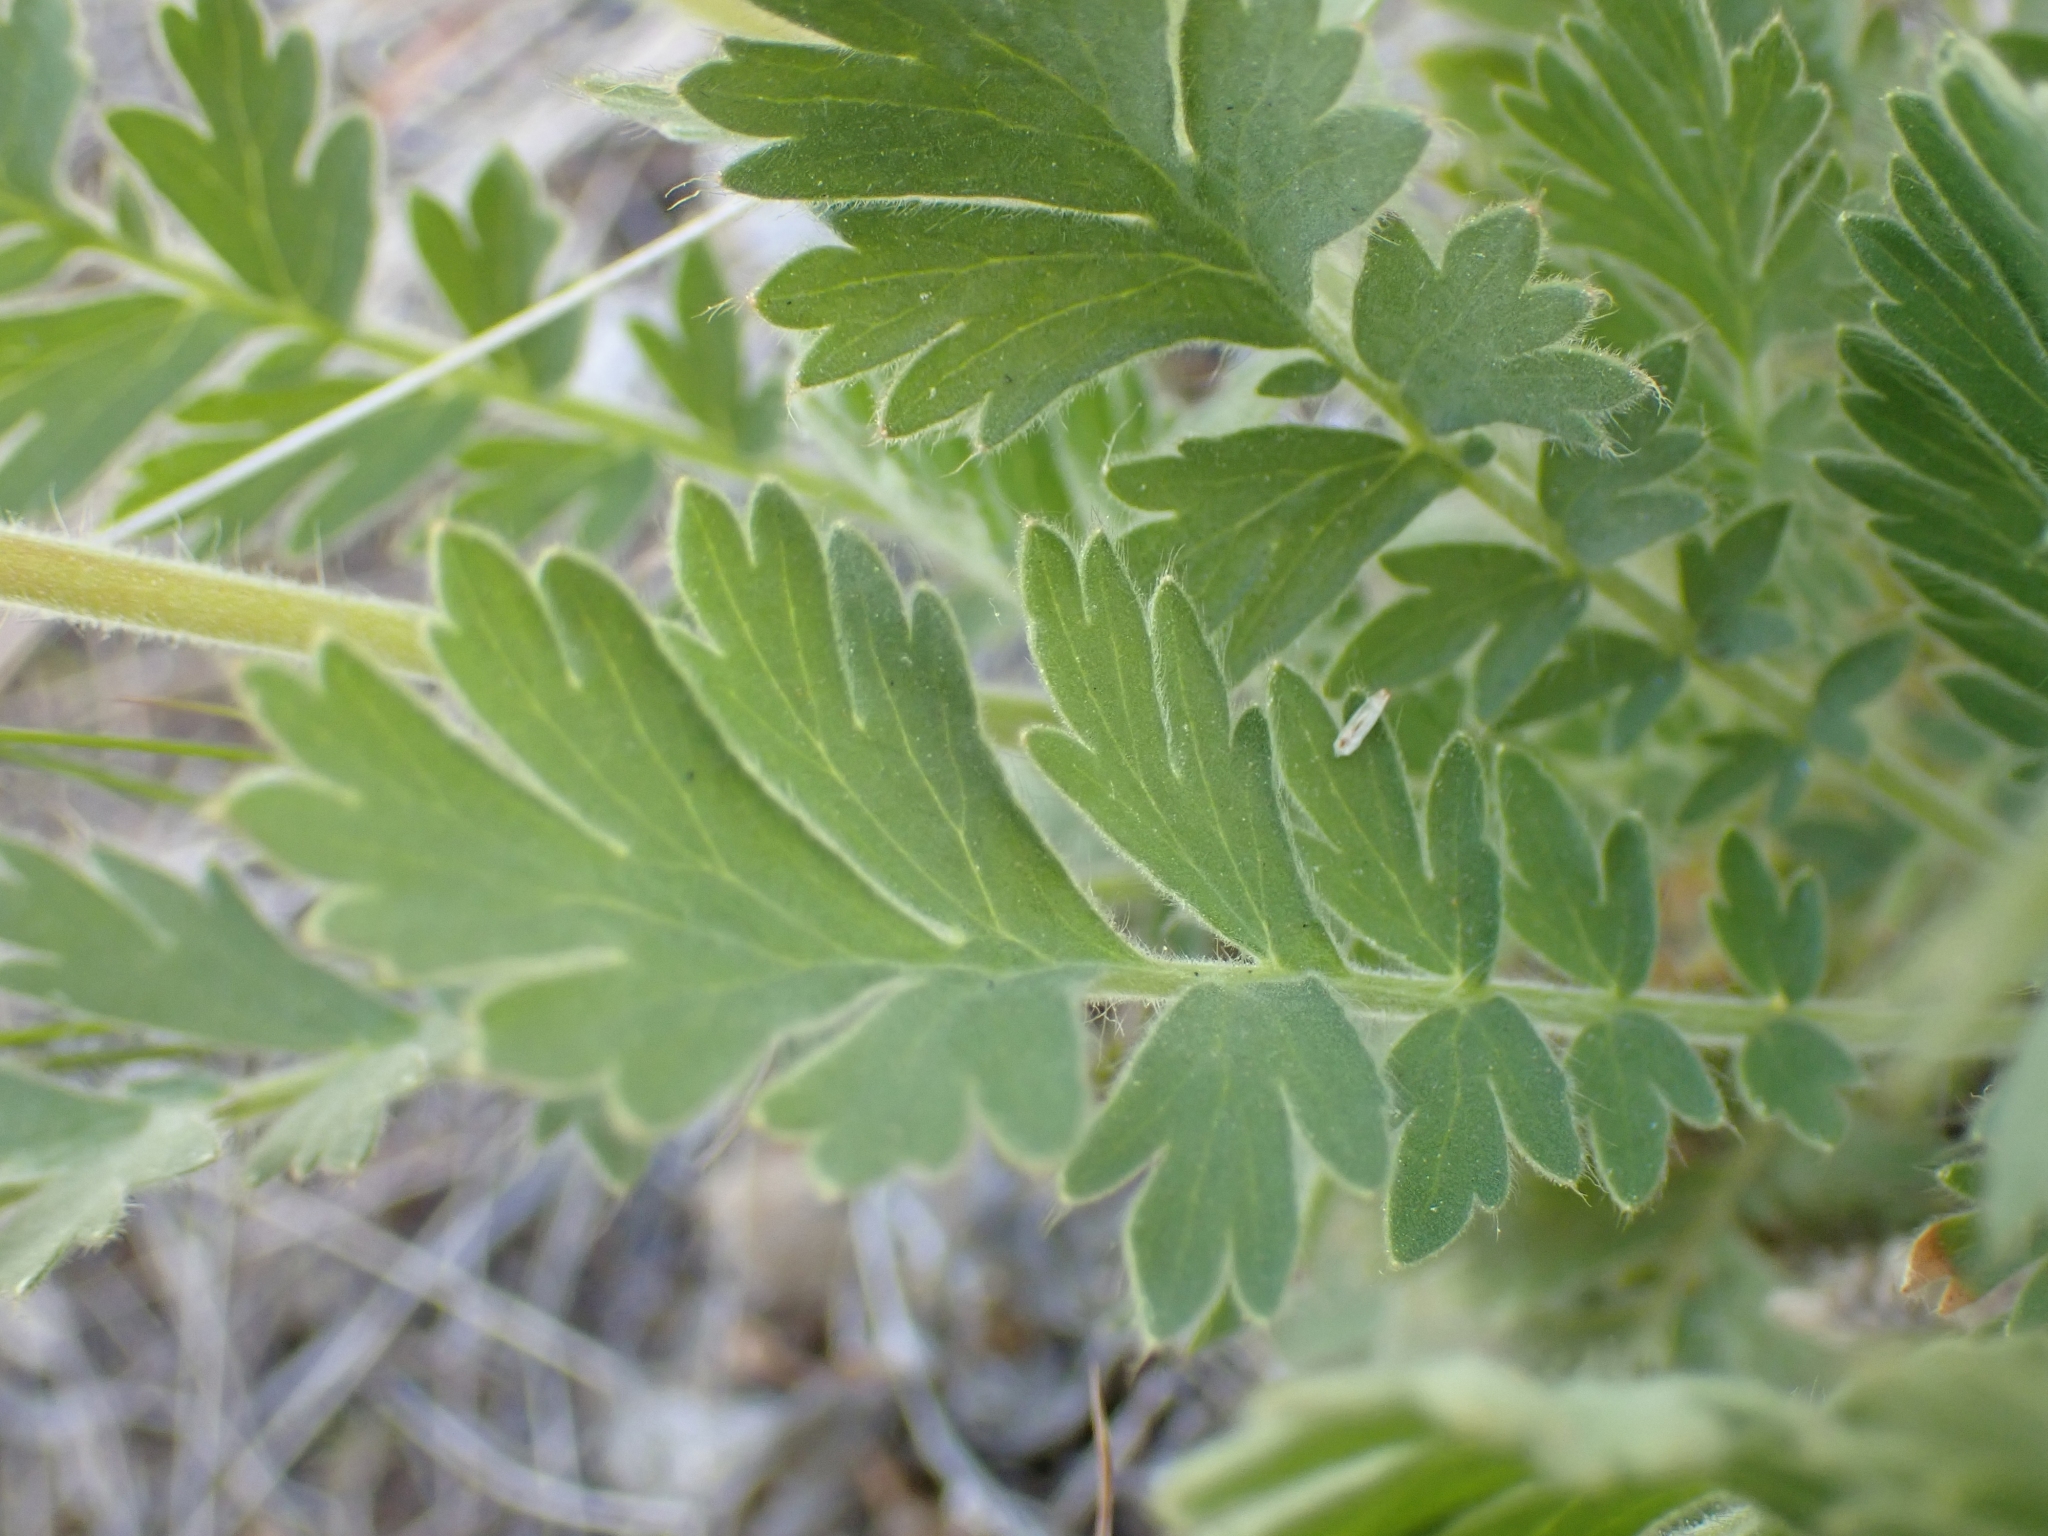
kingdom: Plantae
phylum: Tracheophyta
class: Magnoliopsida
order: Rosales
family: Rosaceae
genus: Geum
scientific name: Geum triflorum
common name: Old man's whiskers
